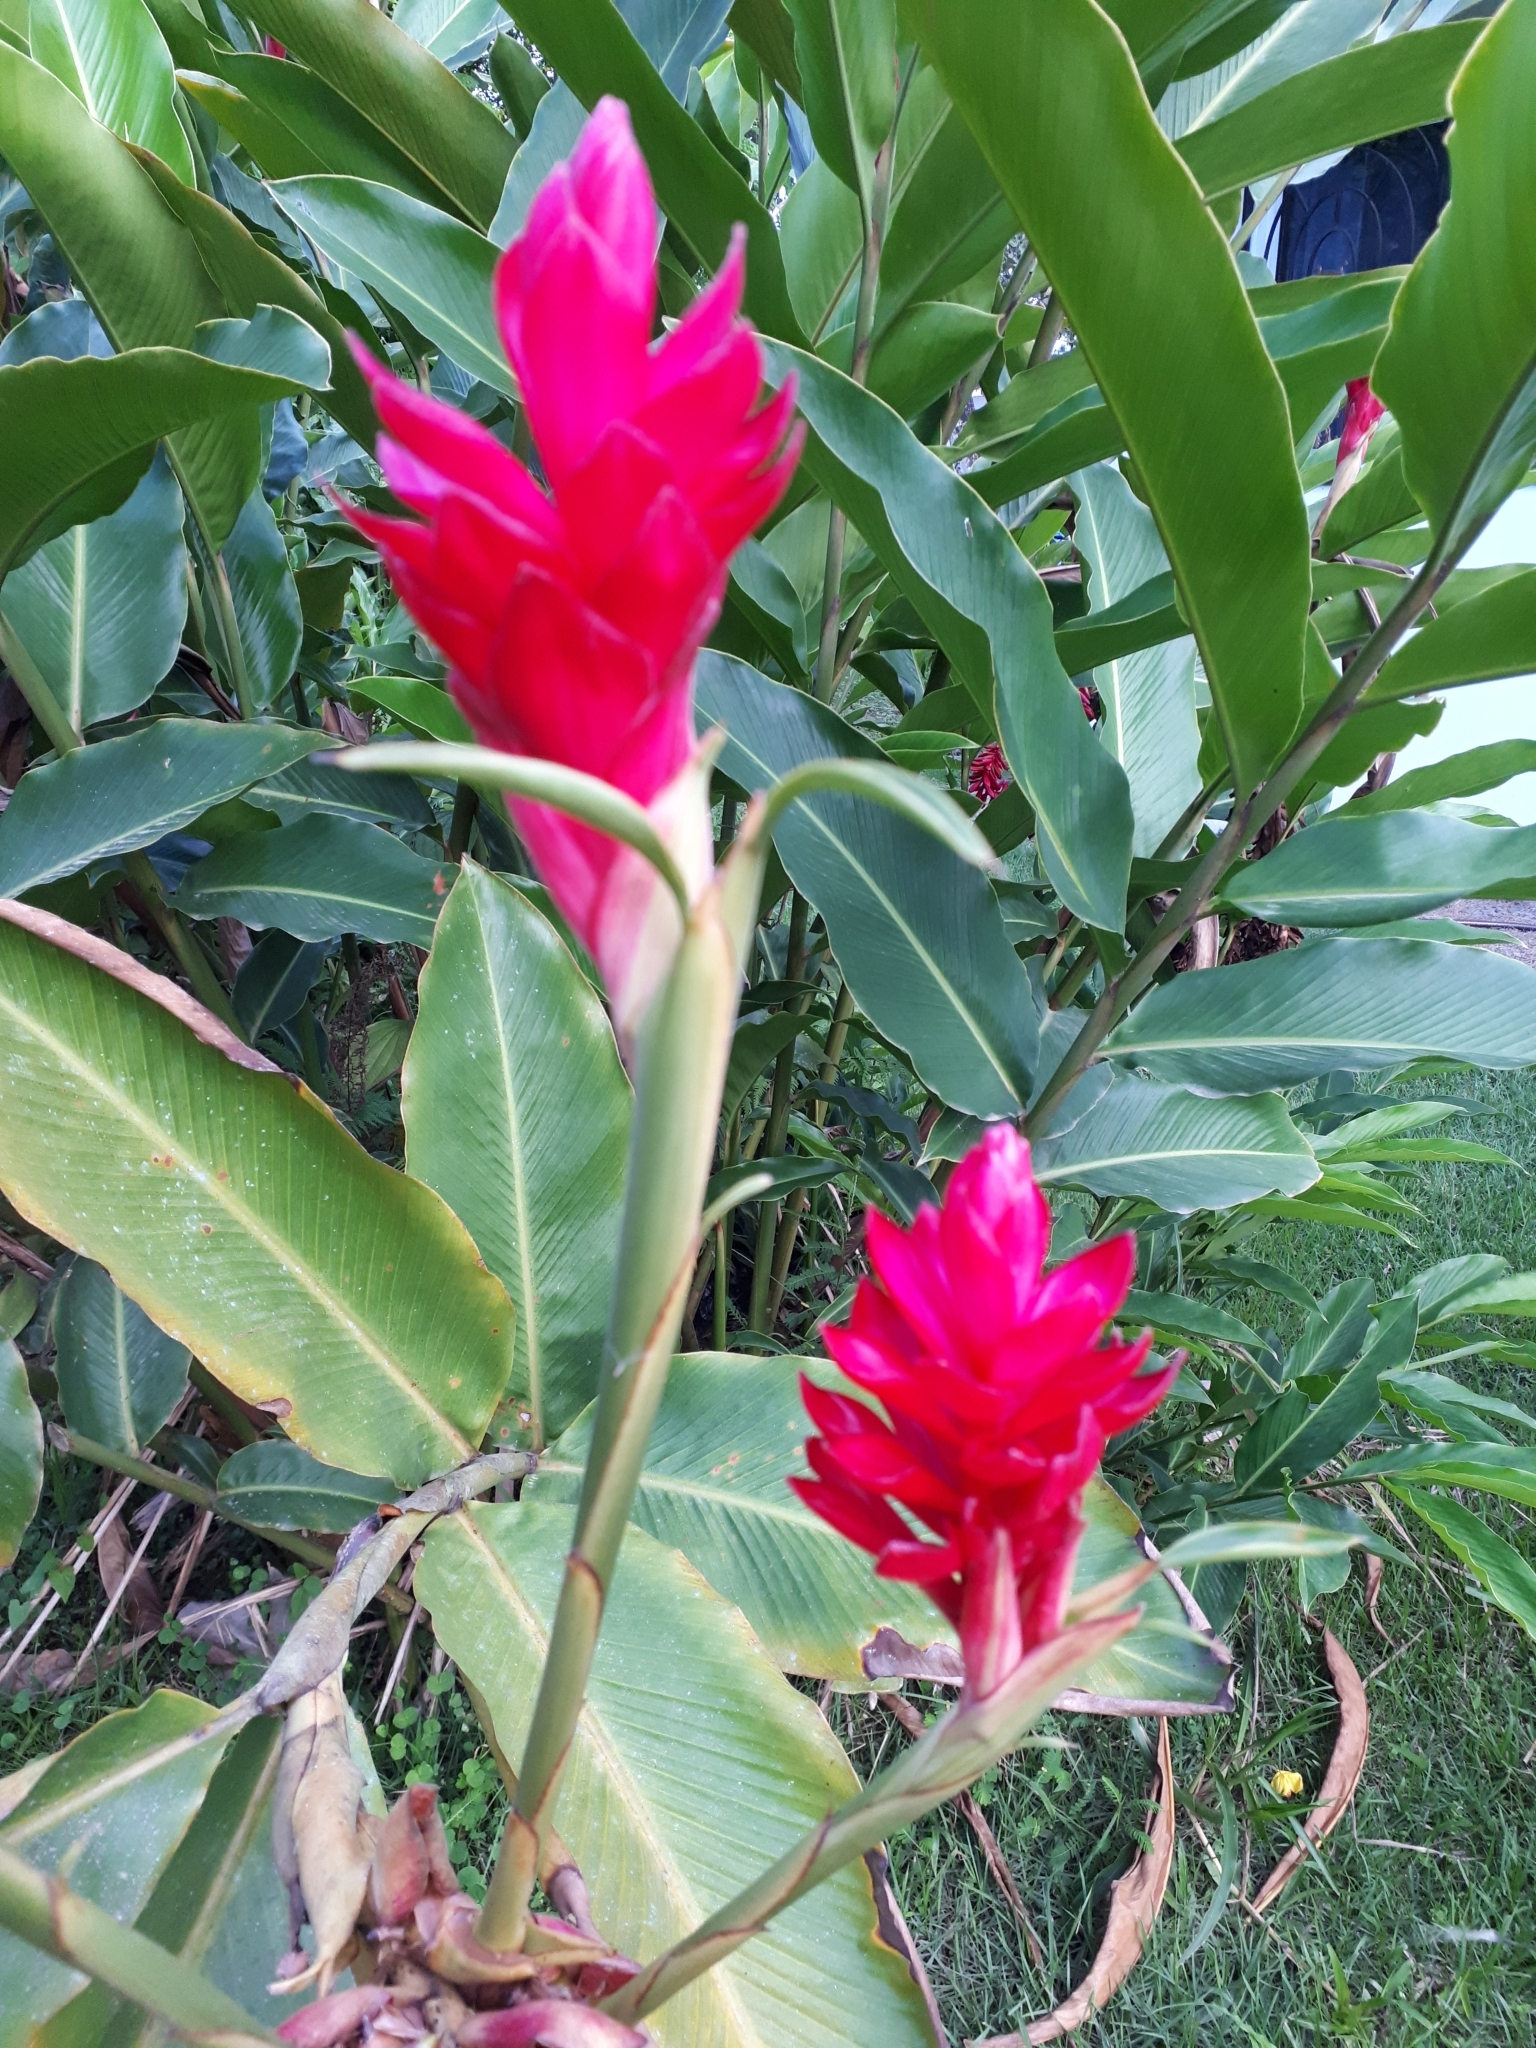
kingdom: Plantae
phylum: Tracheophyta
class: Liliopsida
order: Zingiberales
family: Zingiberaceae
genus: Alpinia
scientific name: Alpinia purpurata
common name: Red ginger
